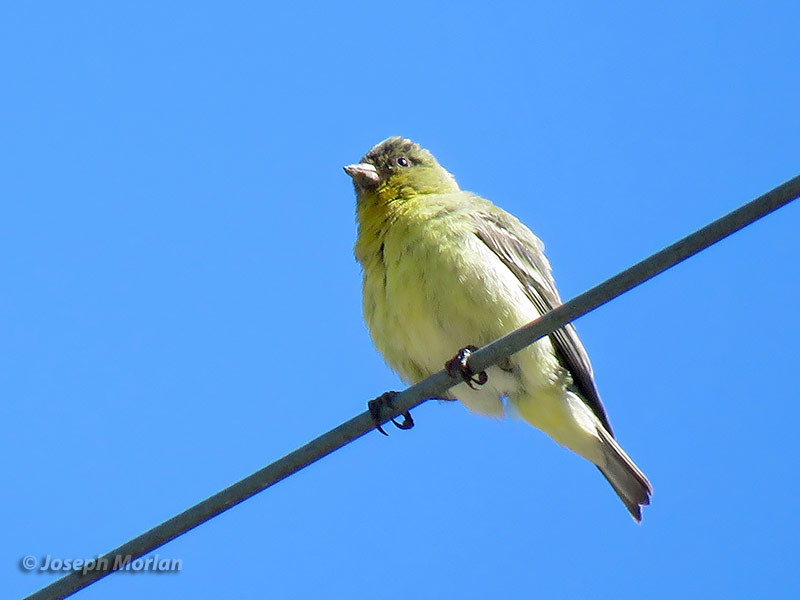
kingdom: Animalia
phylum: Chordata
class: Aves
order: Passeriformes
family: Fringillidae
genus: Spinus
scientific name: Spinus psaltria
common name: Lesser goldfinch
